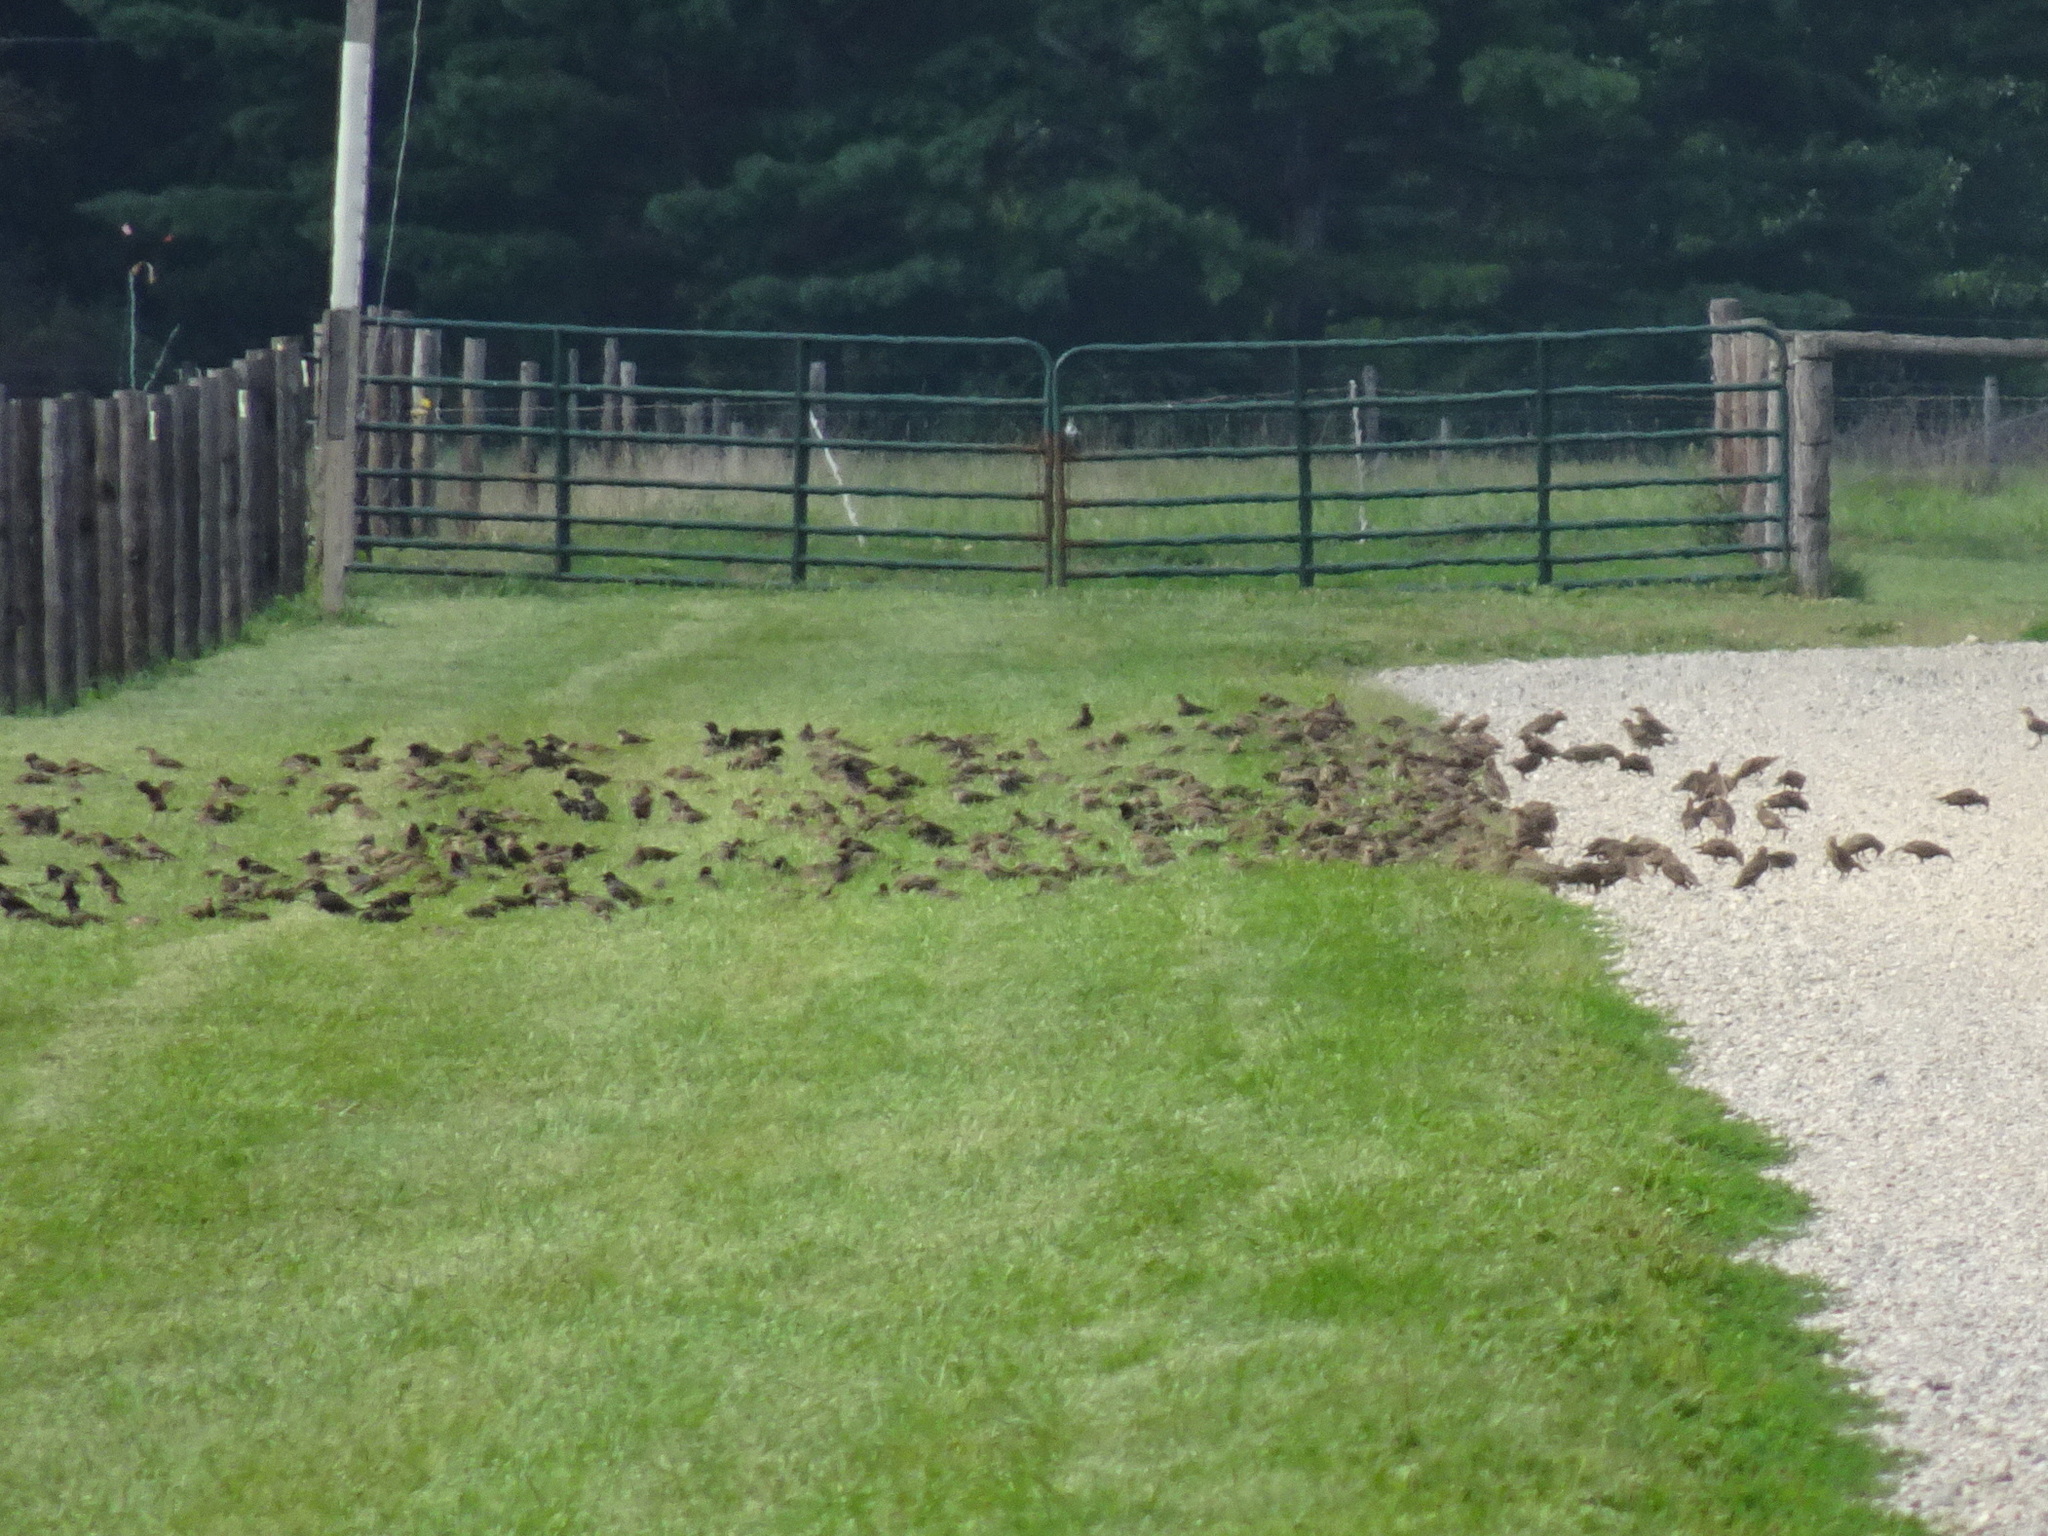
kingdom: Animalia
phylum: Chordata
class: Aves
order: Passeriformes
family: Sturnidae
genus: Sturnus
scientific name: Sturnus vulgaris
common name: Common starling
